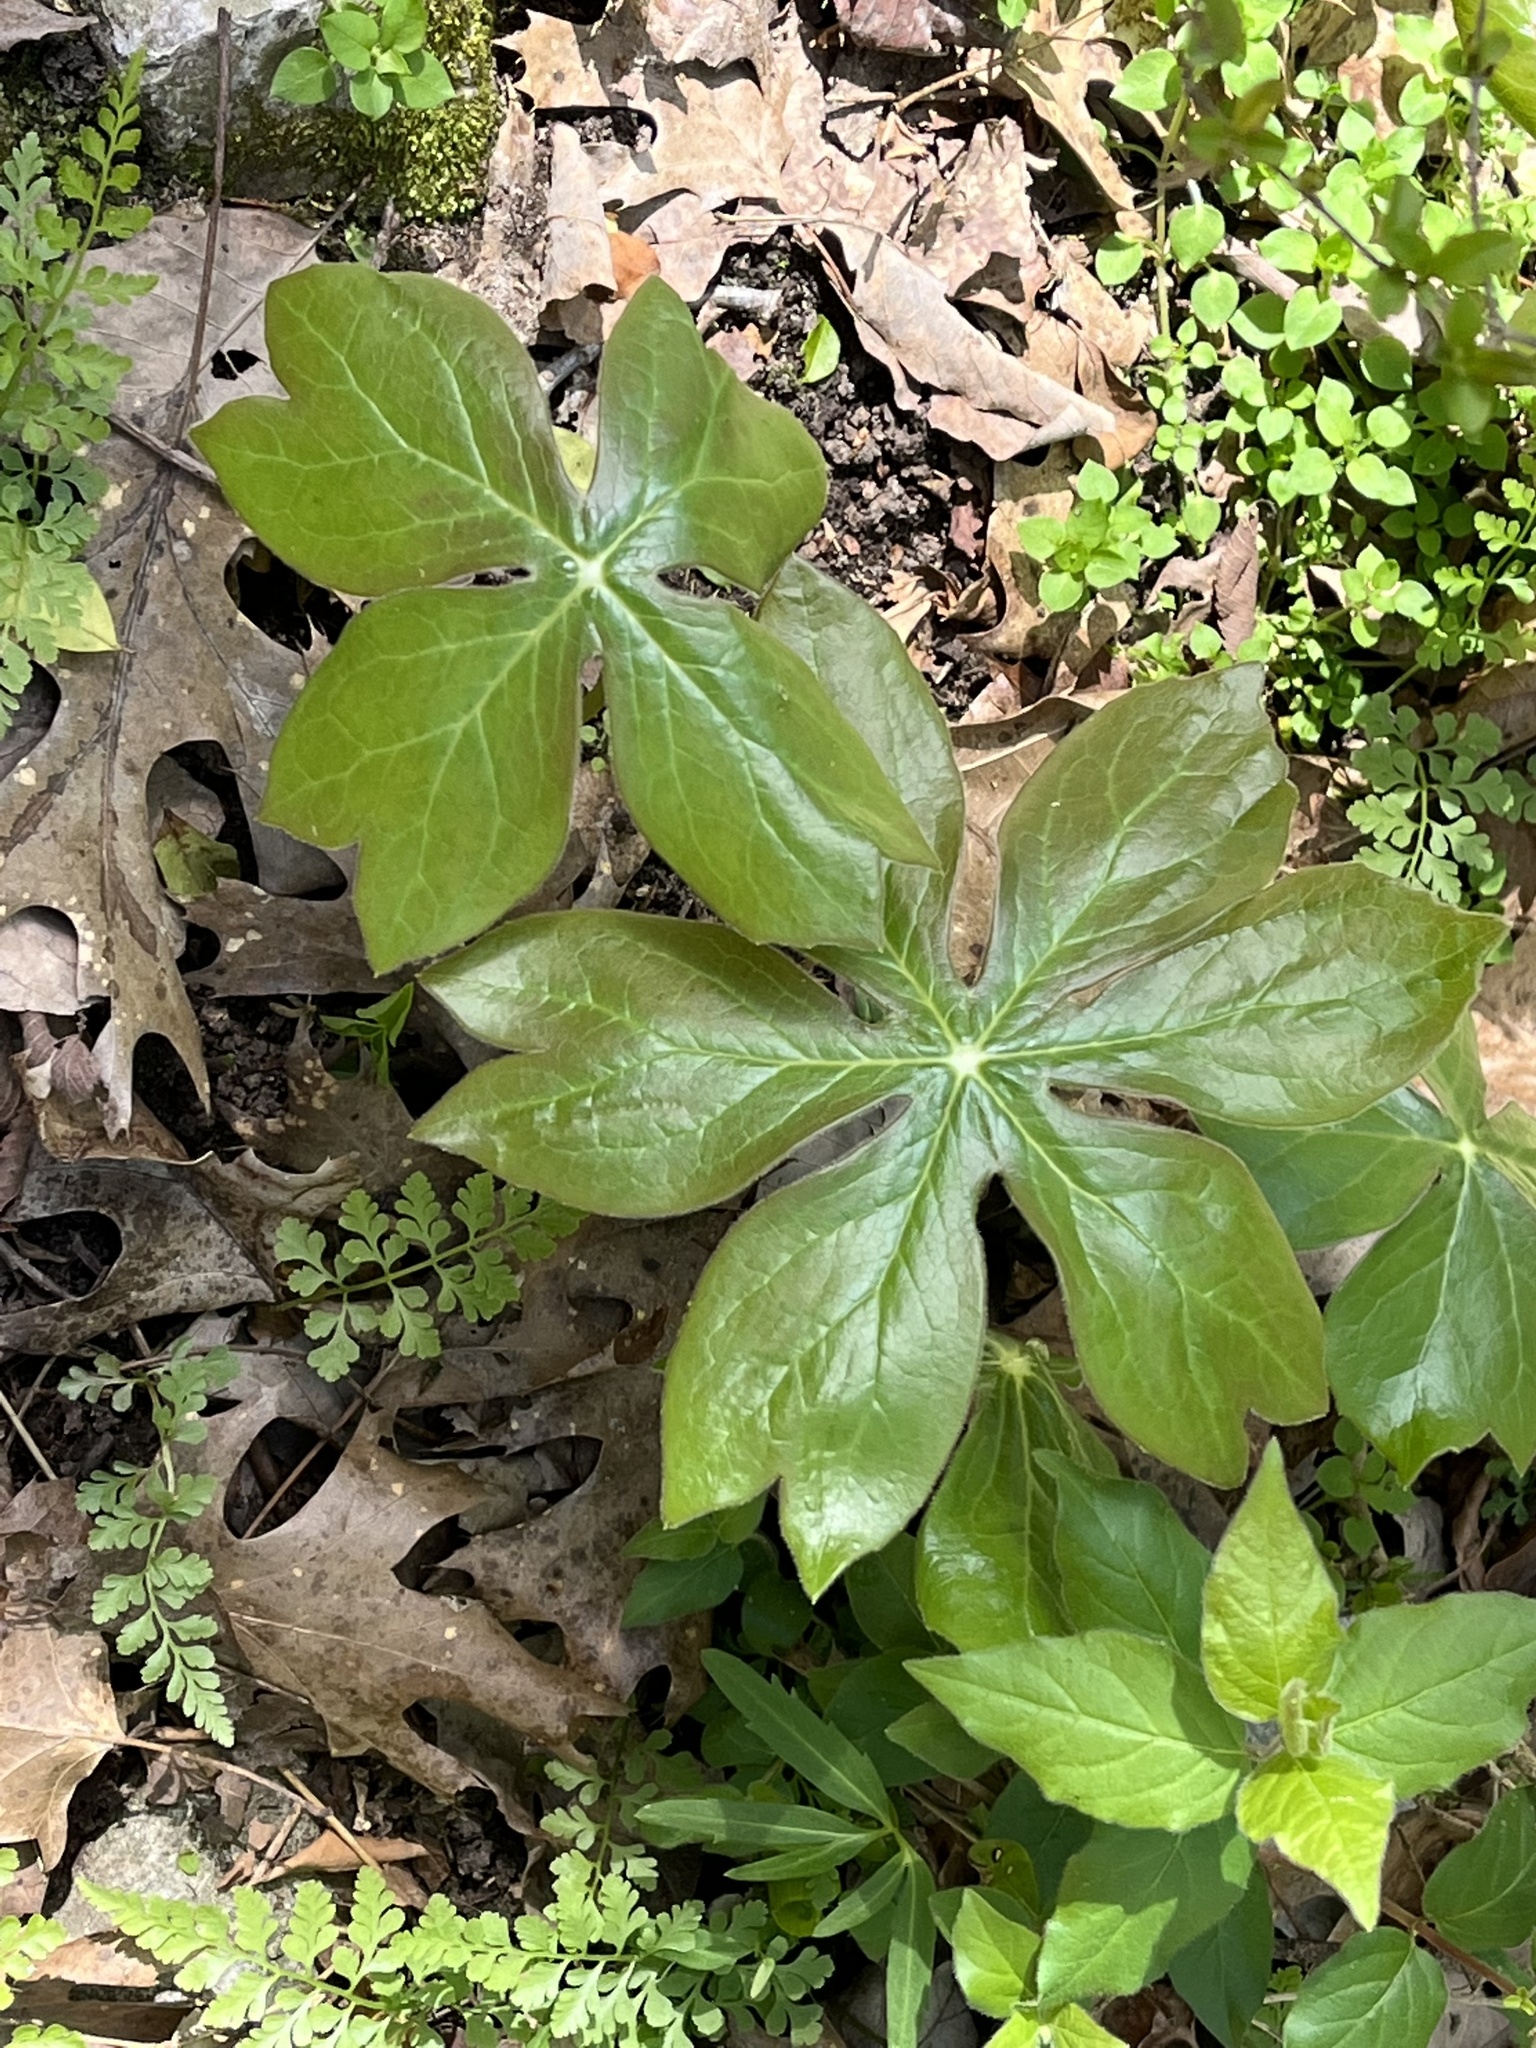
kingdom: Plantae
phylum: Tracheophyta
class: Magnoliopsida
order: Ranunculales
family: Berberidaceae
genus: Podophyllum
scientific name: Podophyllum peltatum
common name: Wild mandrake
